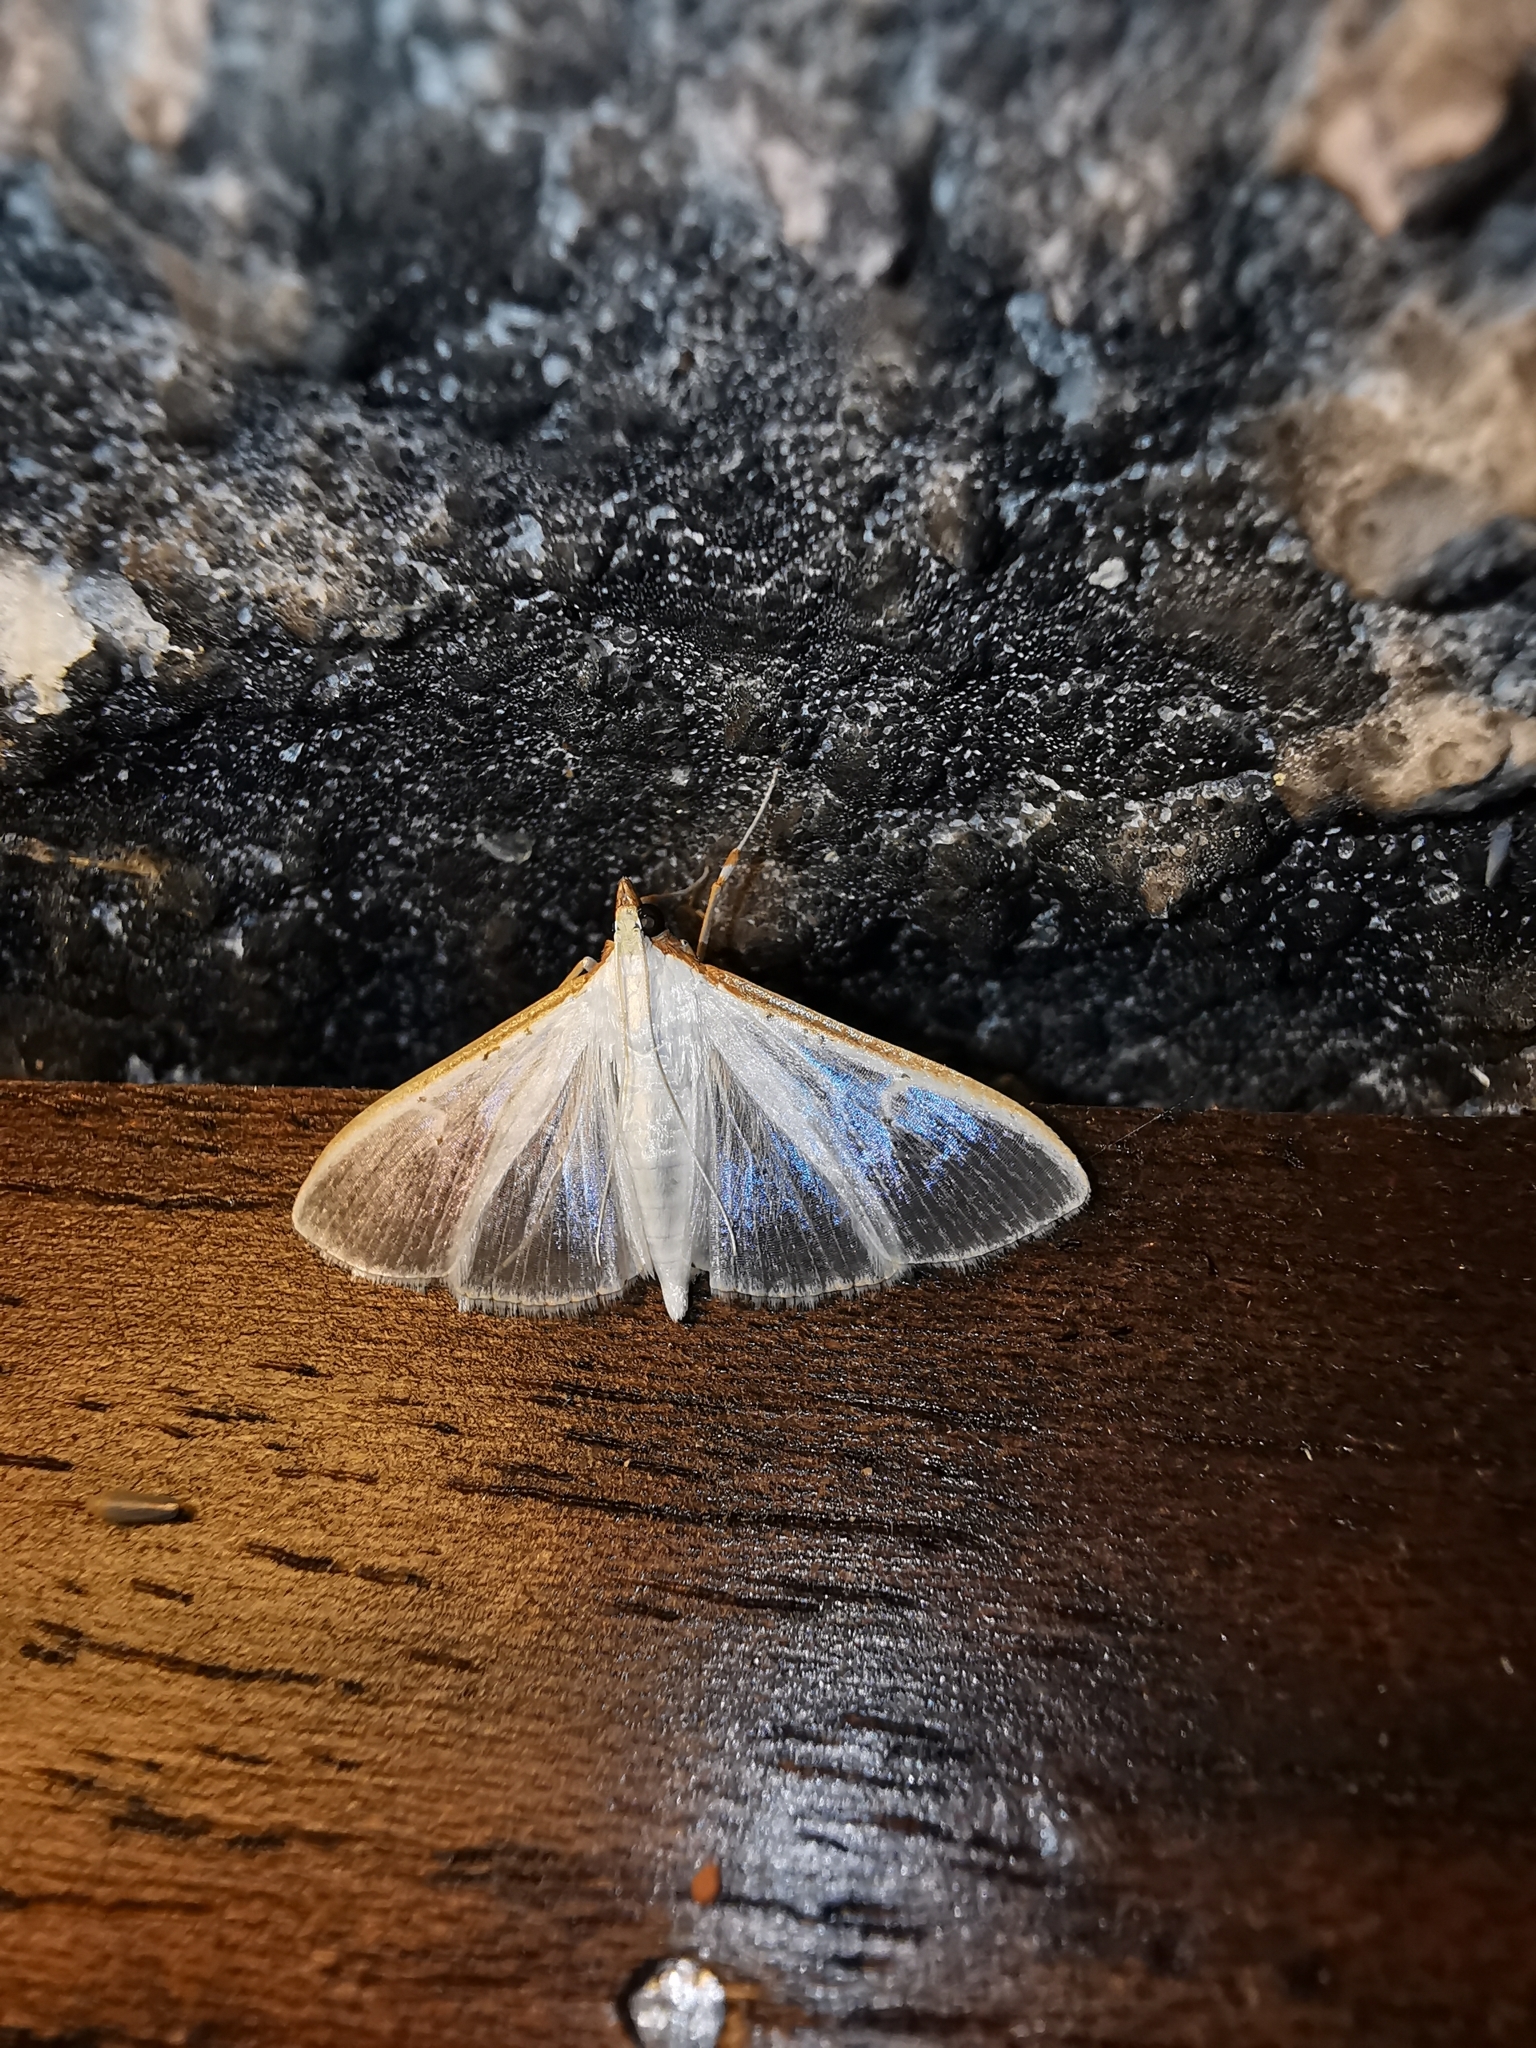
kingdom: Animalia
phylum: Arthropoda
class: Insecta
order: Lepidoptera
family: Crambidae
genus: Palpita
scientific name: Palpita vitrealis
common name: Olive-tree pearl
